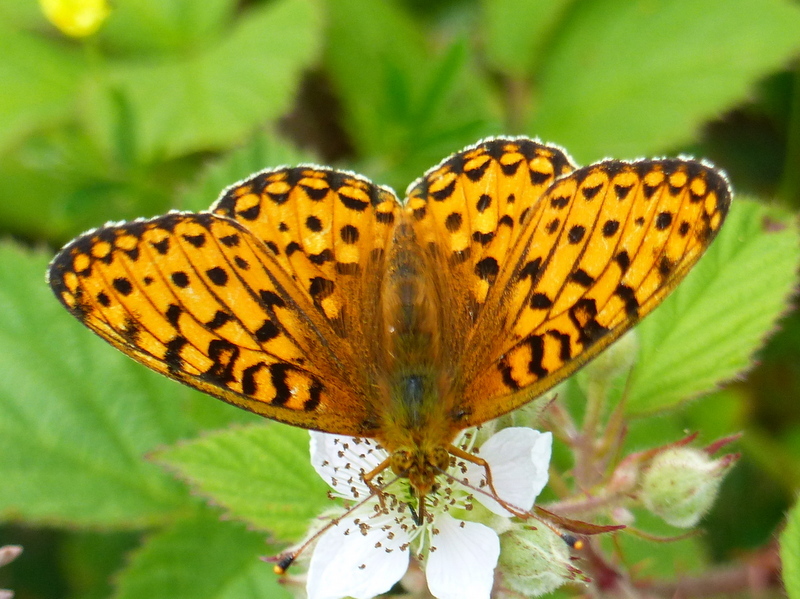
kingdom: Animalia
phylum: Arthropoda
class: Insecta
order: Lepidoptera
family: Nymphalidae
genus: Speyeria
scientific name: Speyeria aglaja
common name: Dark green fritillary
